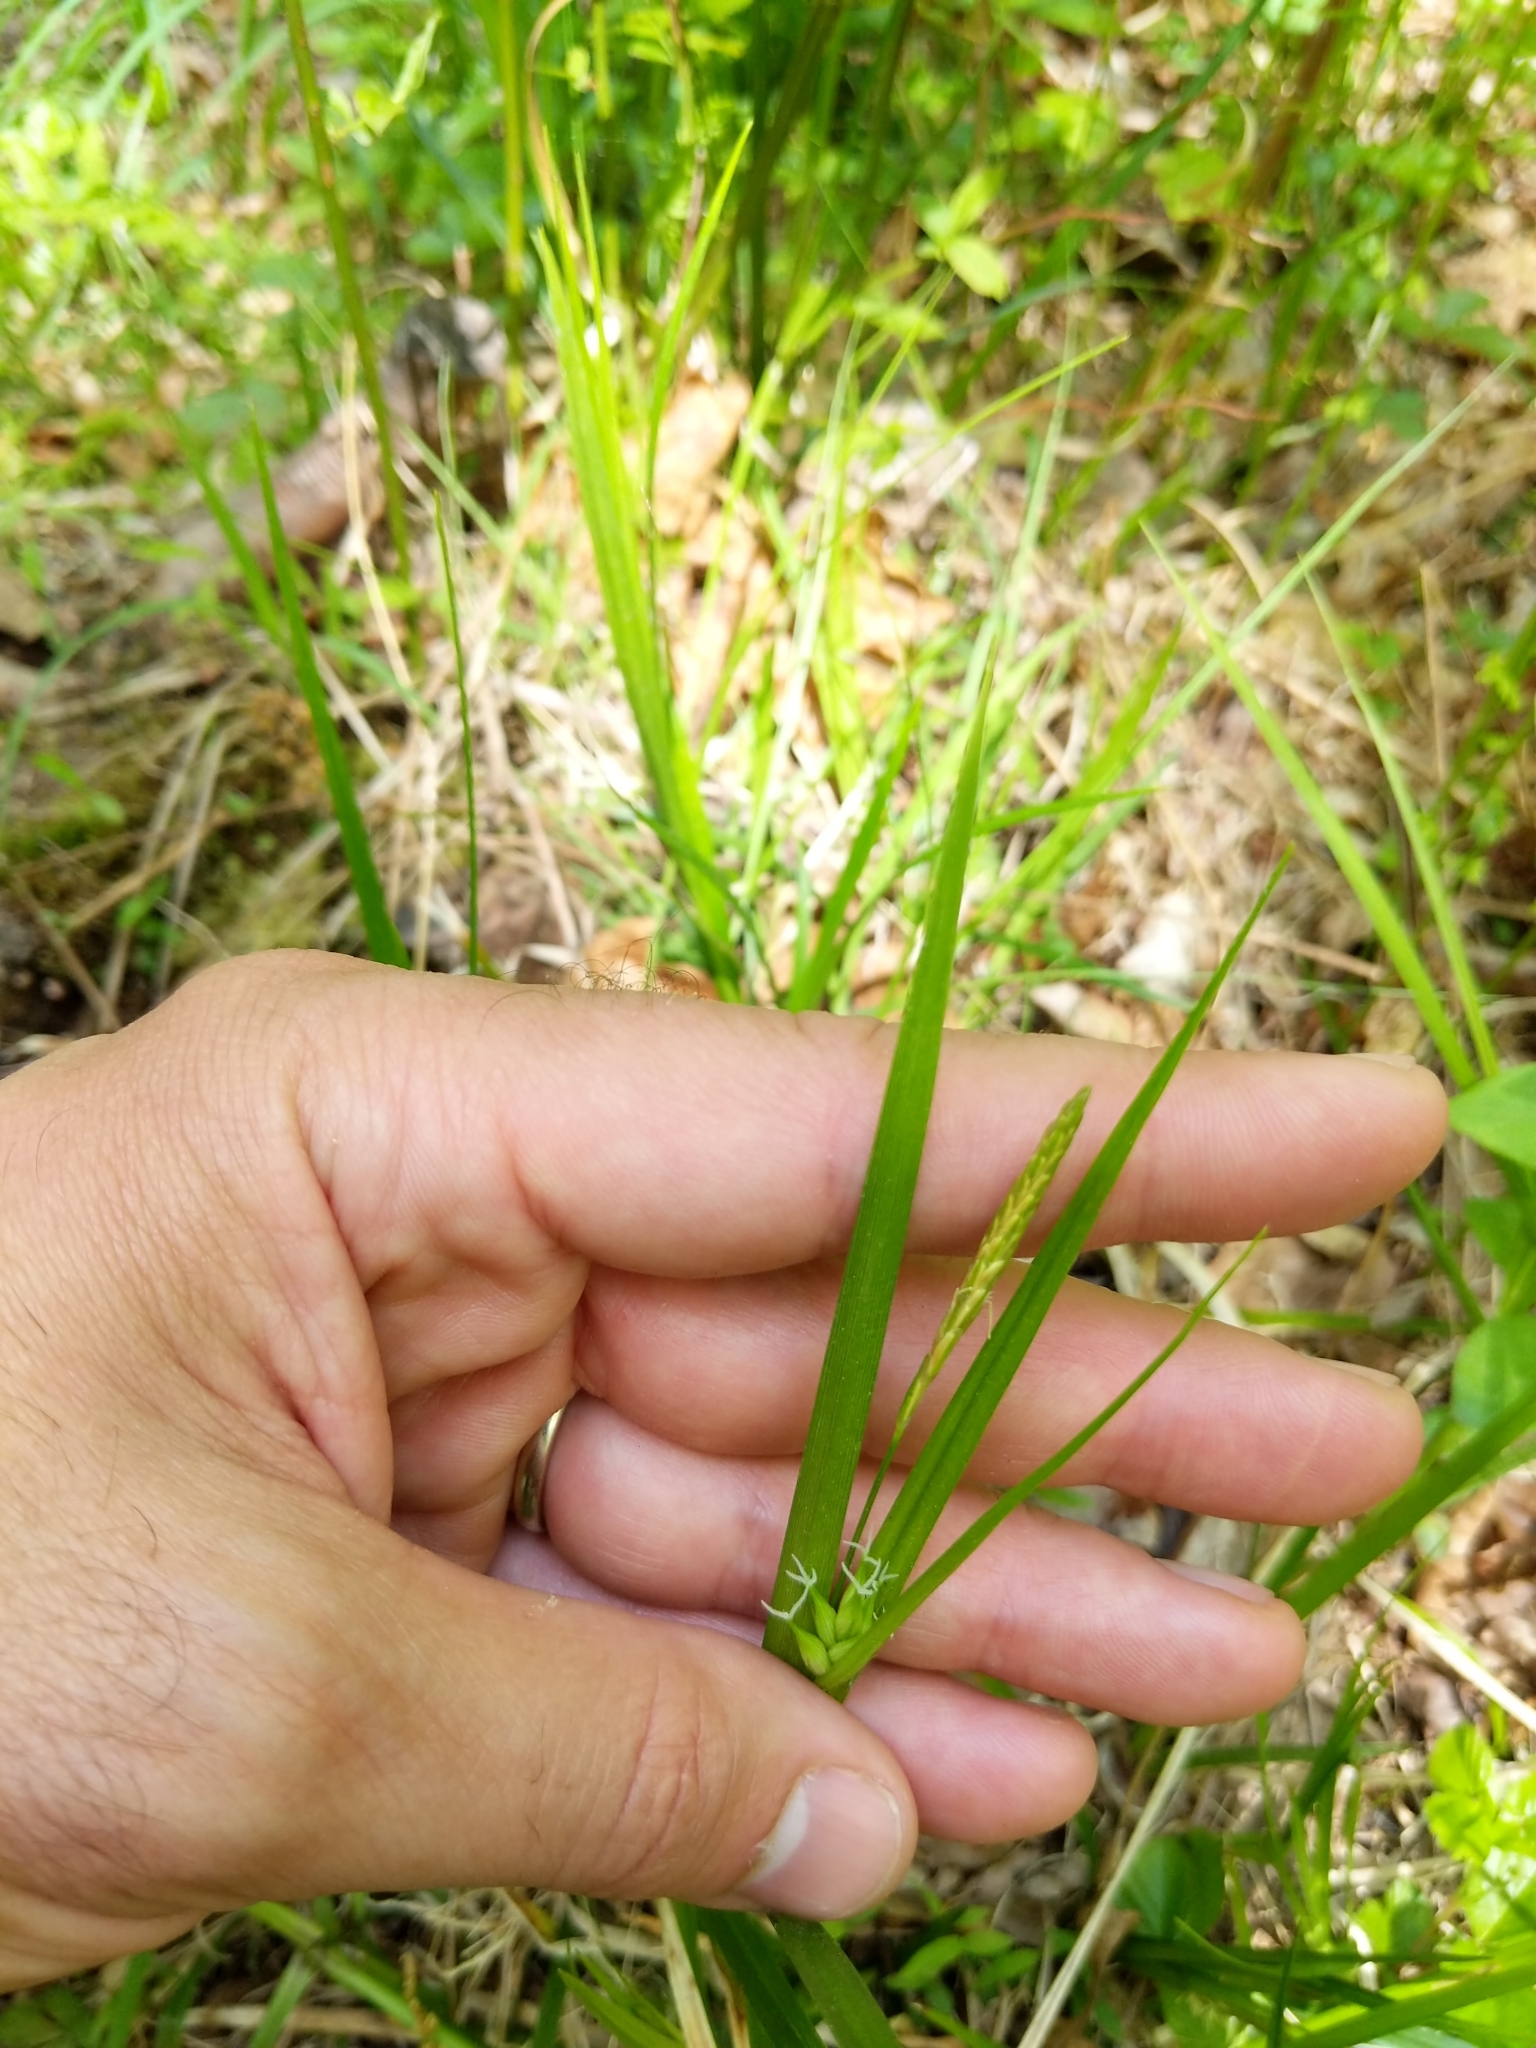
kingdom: Plantae
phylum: Tracheophyta
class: Liliopsida
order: Poales
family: Cyperaceae
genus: Carex
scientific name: Carex intumescens
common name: Greater bladder sedge
